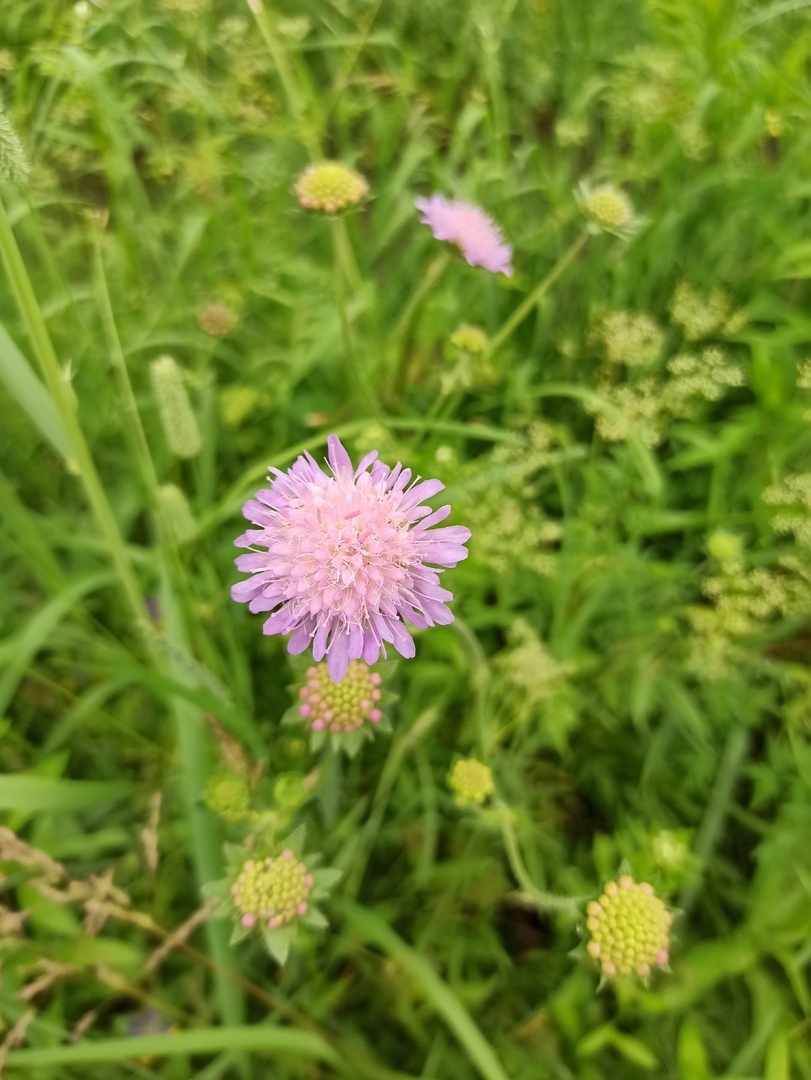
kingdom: Plantae
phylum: Tracheophyta
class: Magnoliopsida
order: Dipsacales
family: Caprifoliaceae
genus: Knautia
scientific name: Knautia arvensis
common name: Field scabiosa
